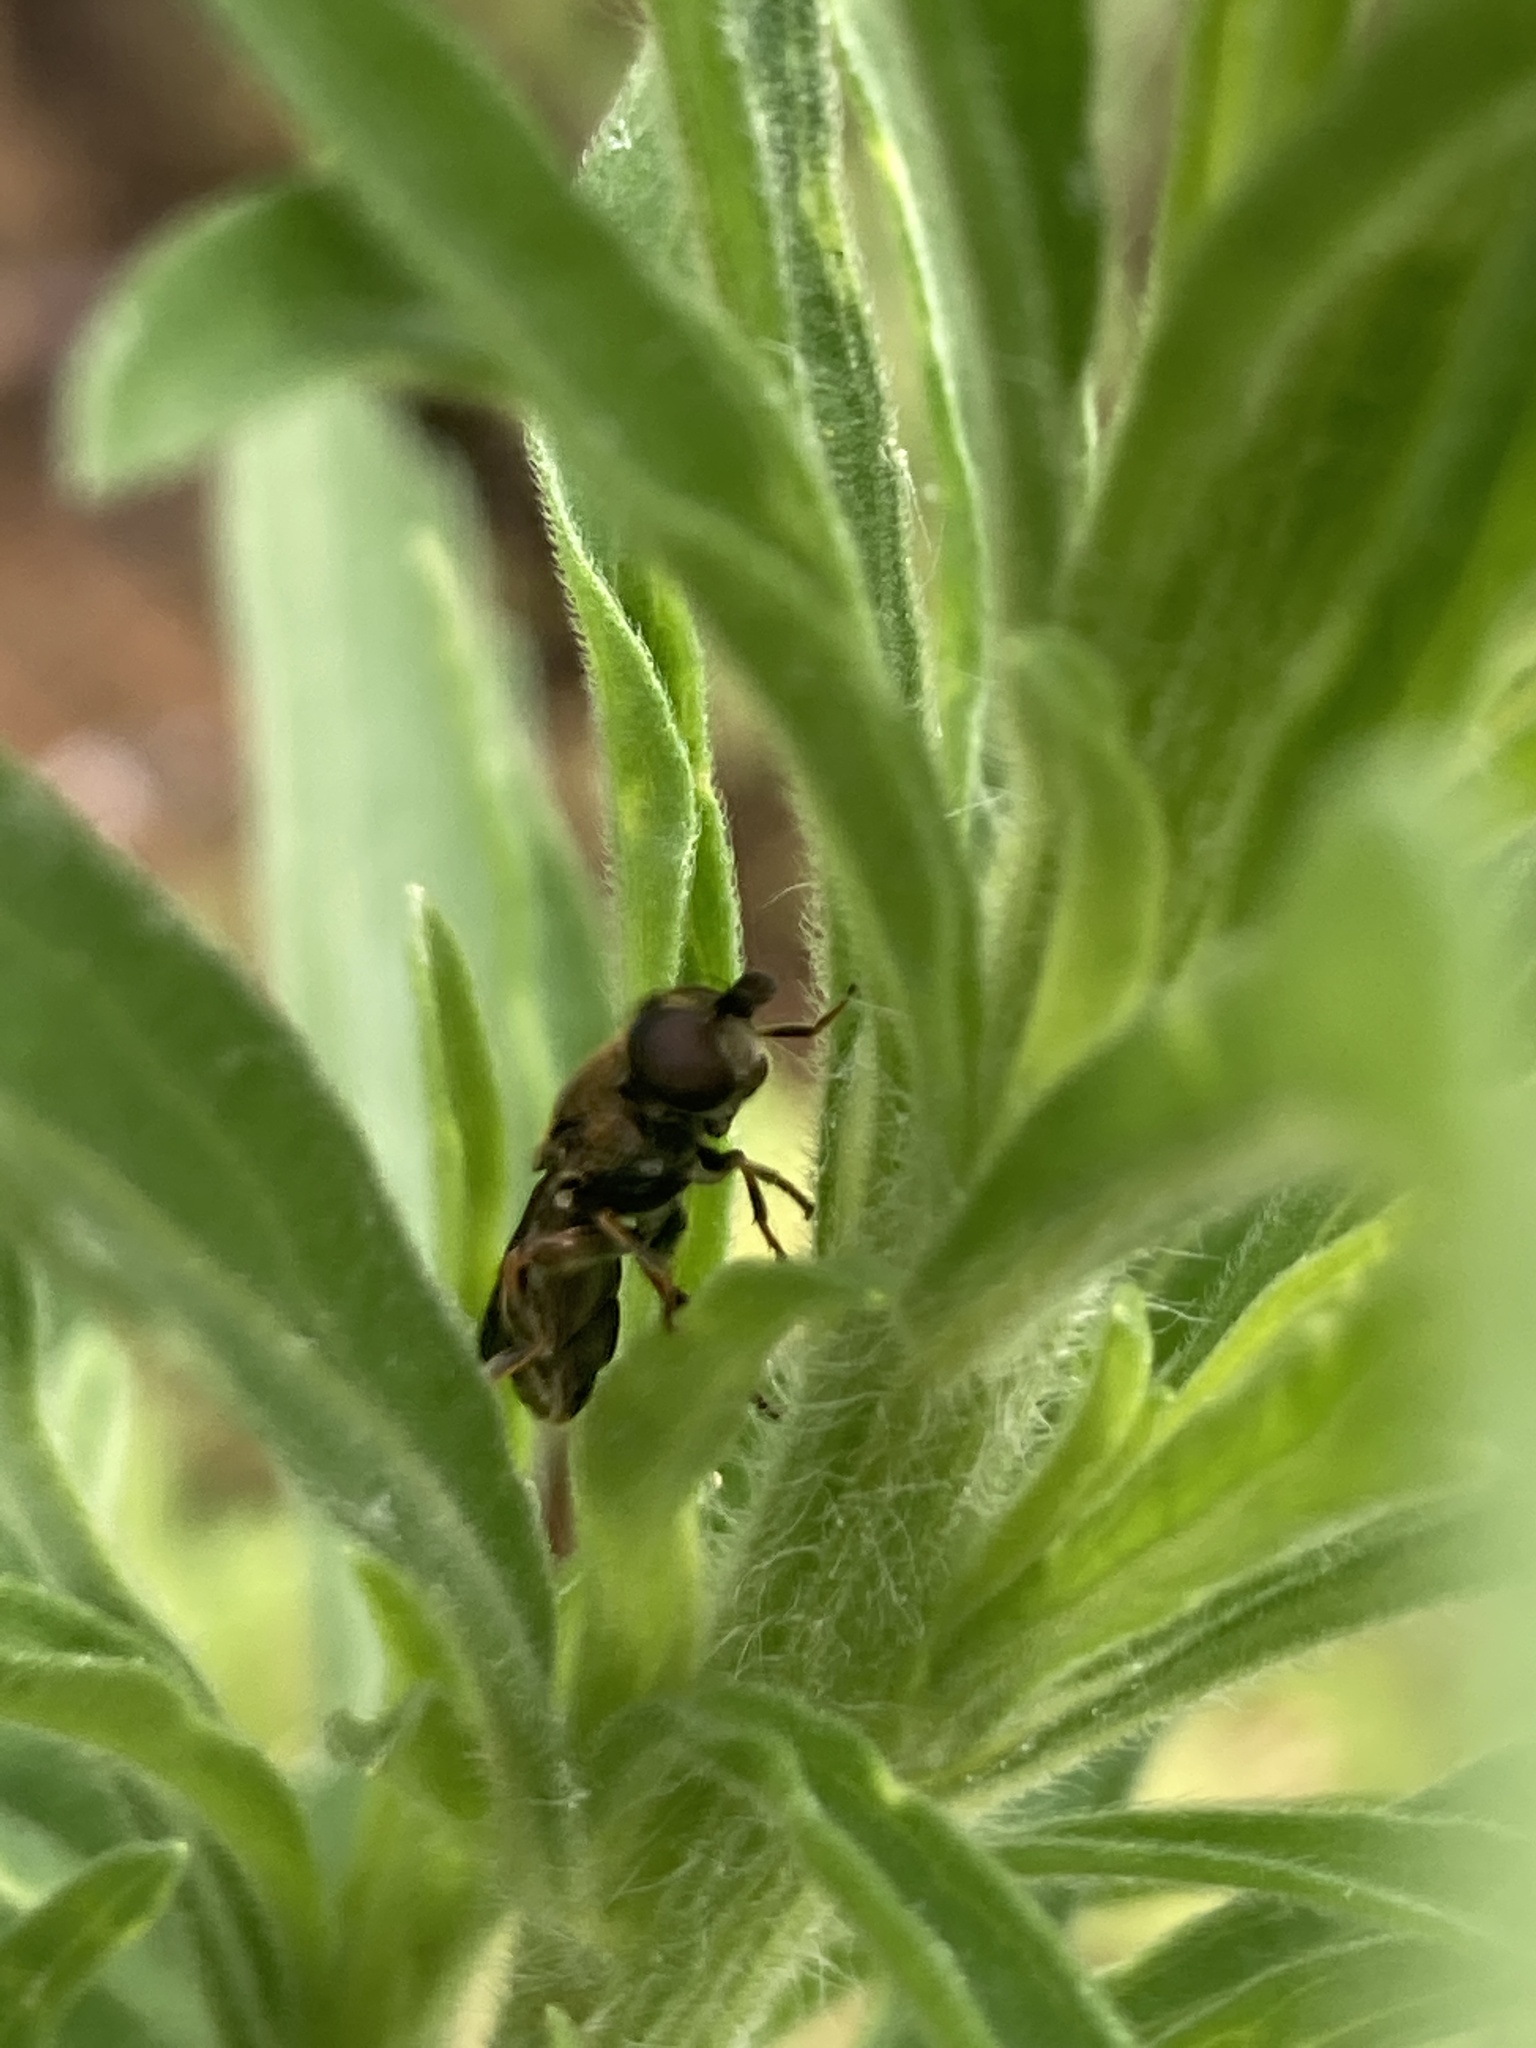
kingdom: Animalia
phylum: Arthropoda
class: Insecta
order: Diptera
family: Syrphidae
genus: Eumerus
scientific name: Eumerus
